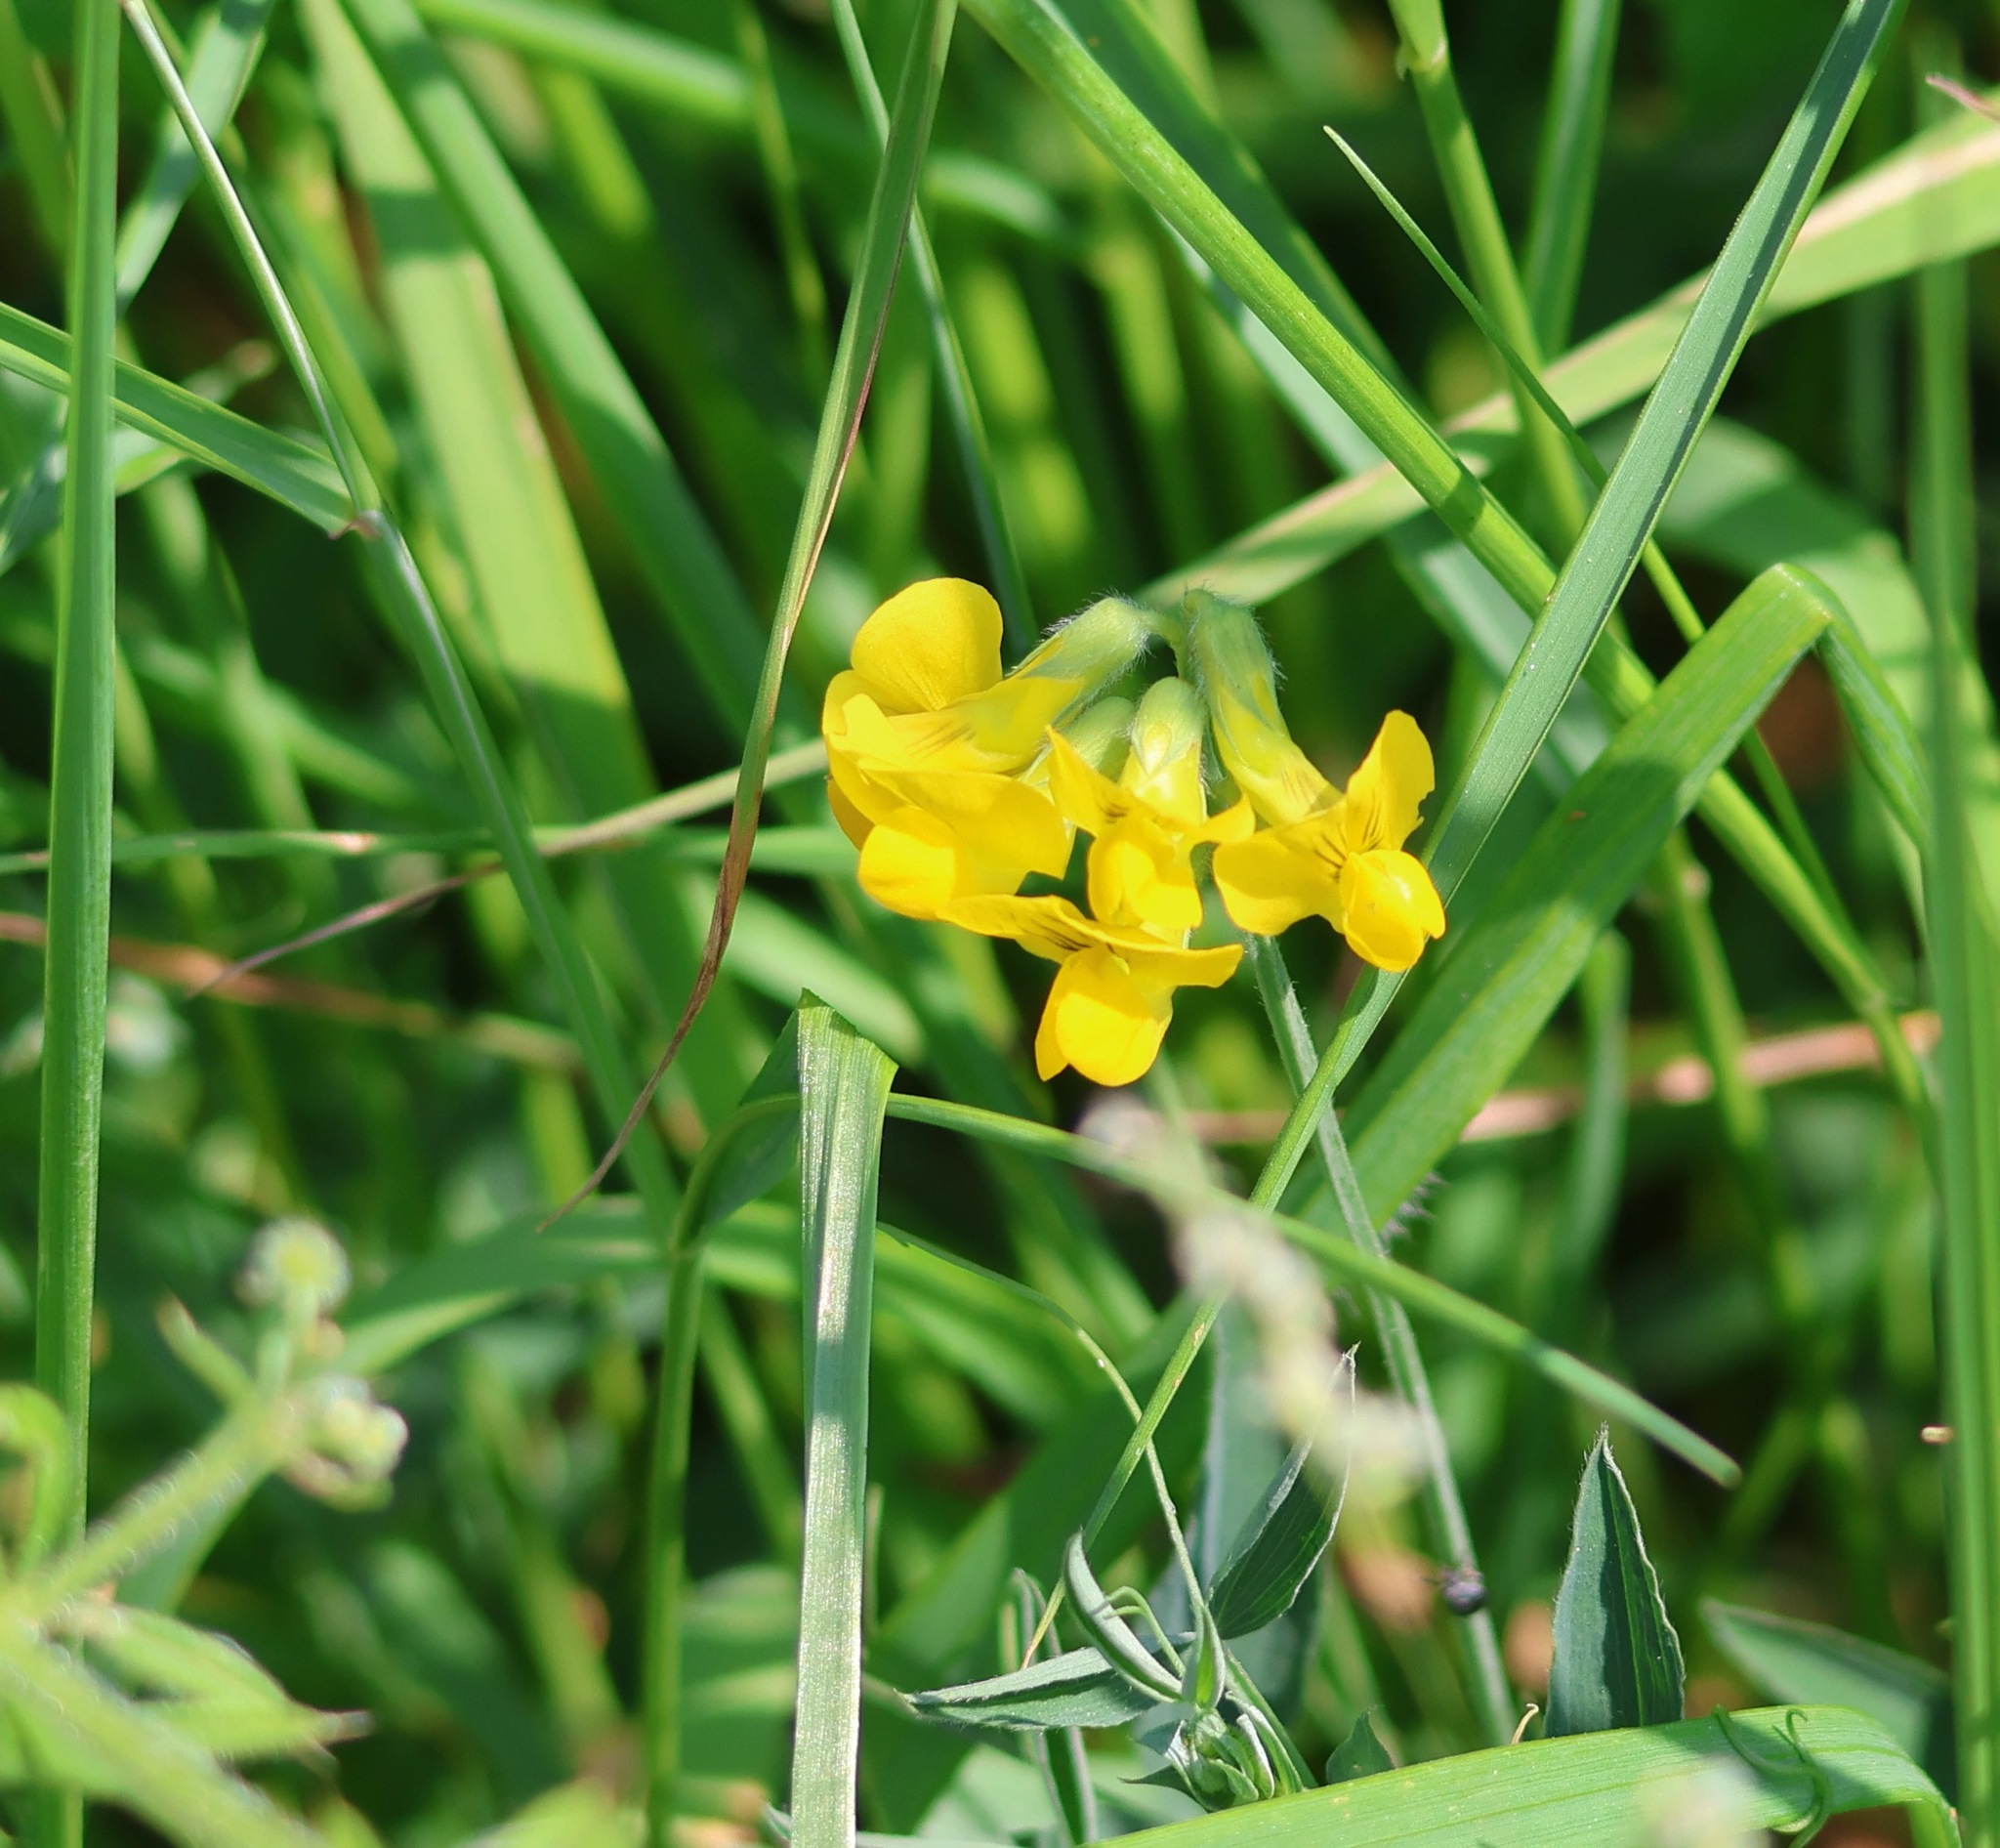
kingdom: Plantae
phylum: Tracheophyta
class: Magnoliopsida
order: Fabales
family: Fabaceae
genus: Lathyrus
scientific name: Lathyrus pratensis
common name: Meadow vetchling
